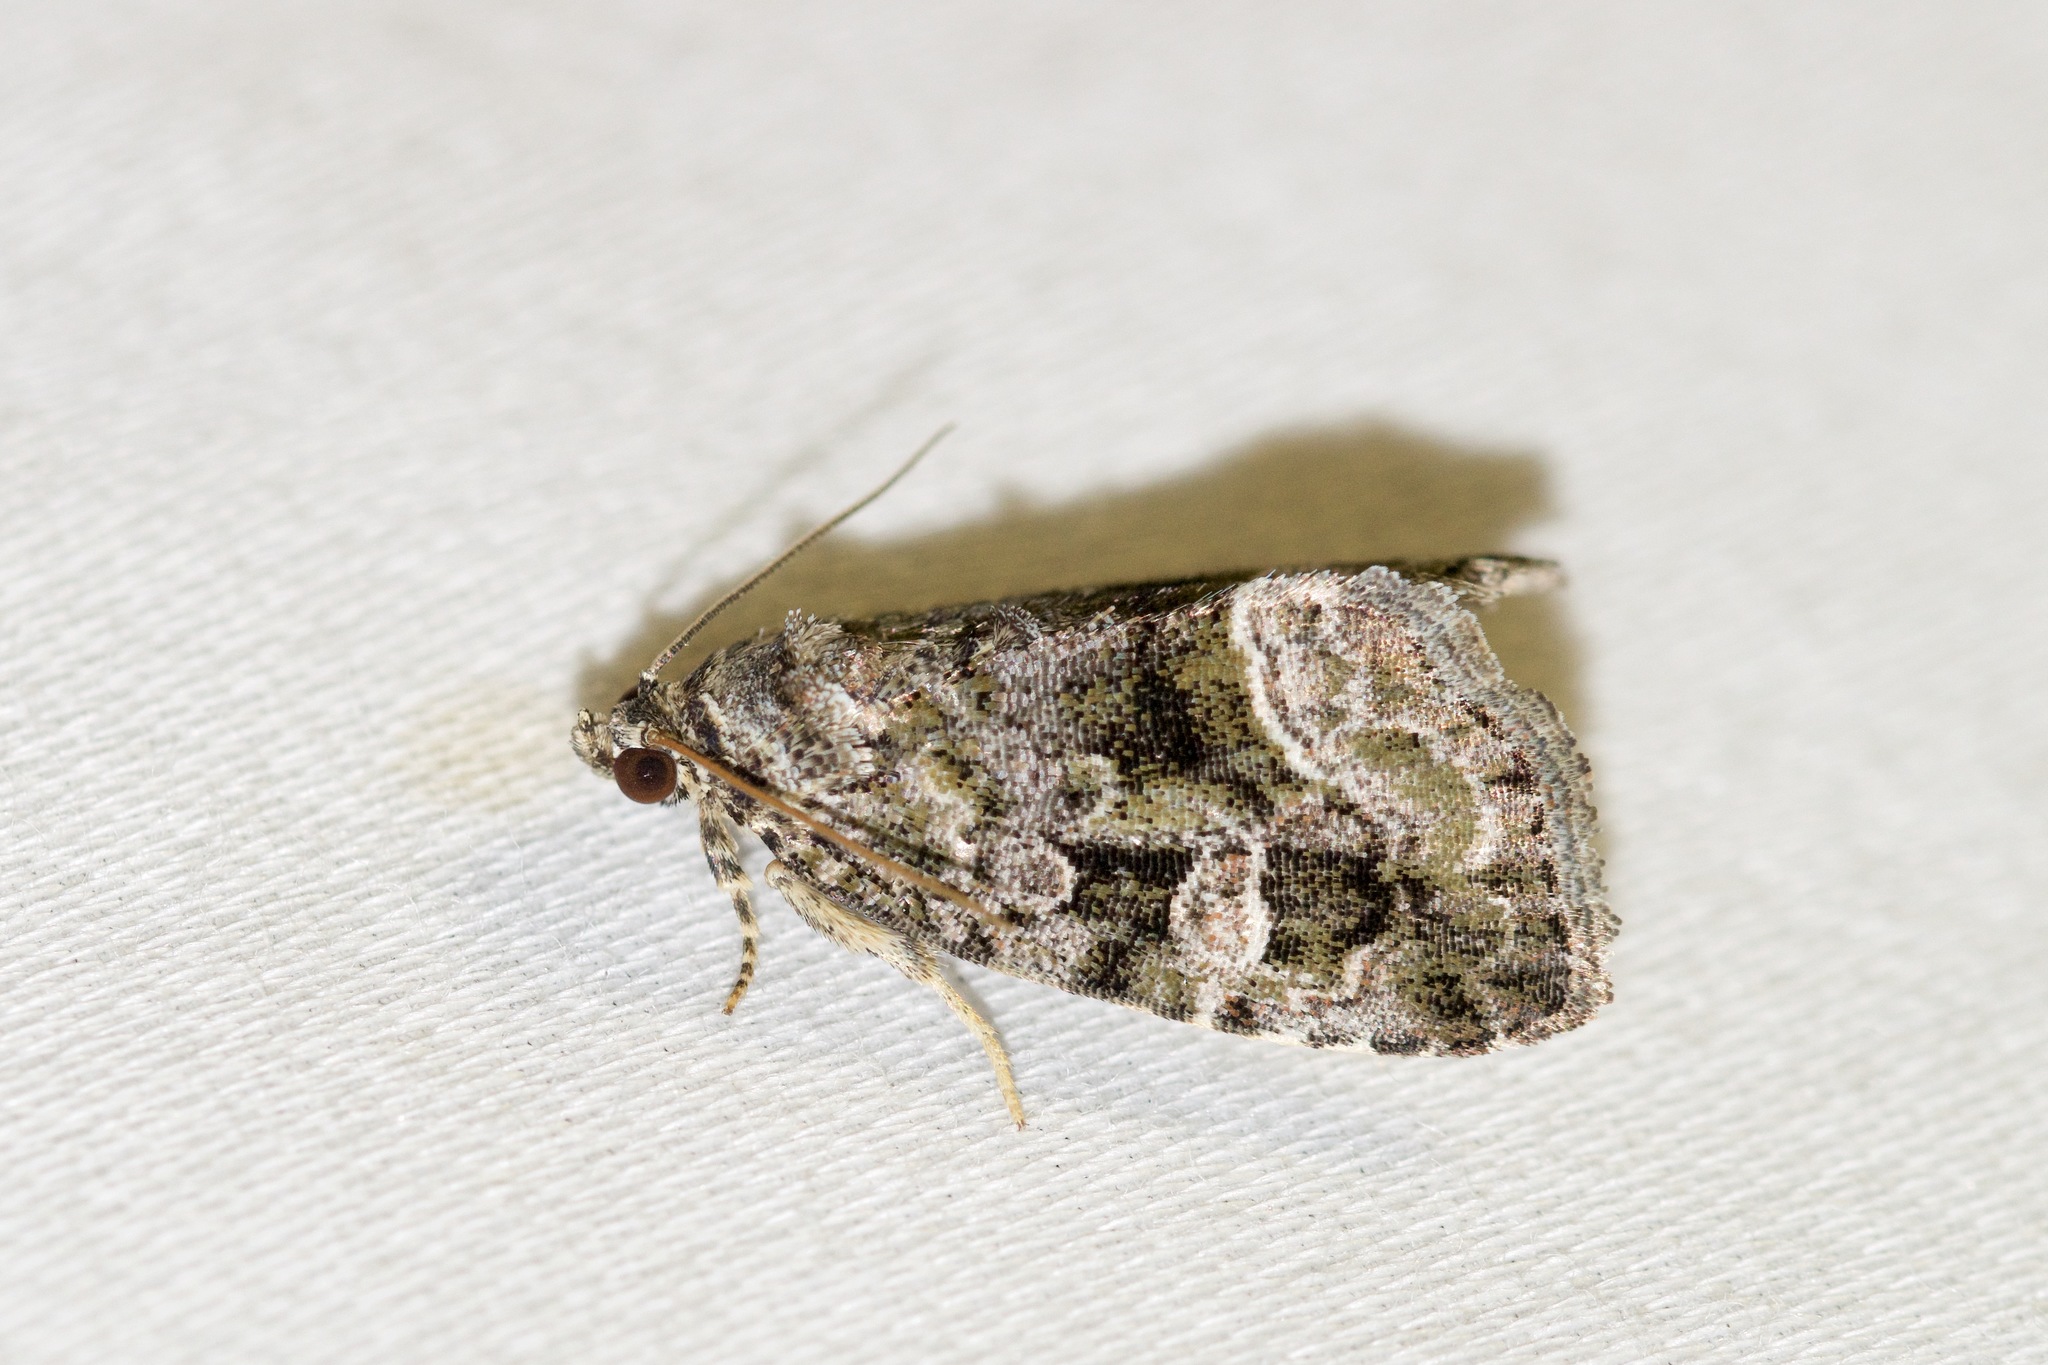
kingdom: Animalia
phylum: Arthropoda
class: Insecta
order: Lepidoptera
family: Noctuidae
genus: Protodeltote
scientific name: Protodeltote muscosula
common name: Large mossy glyph
